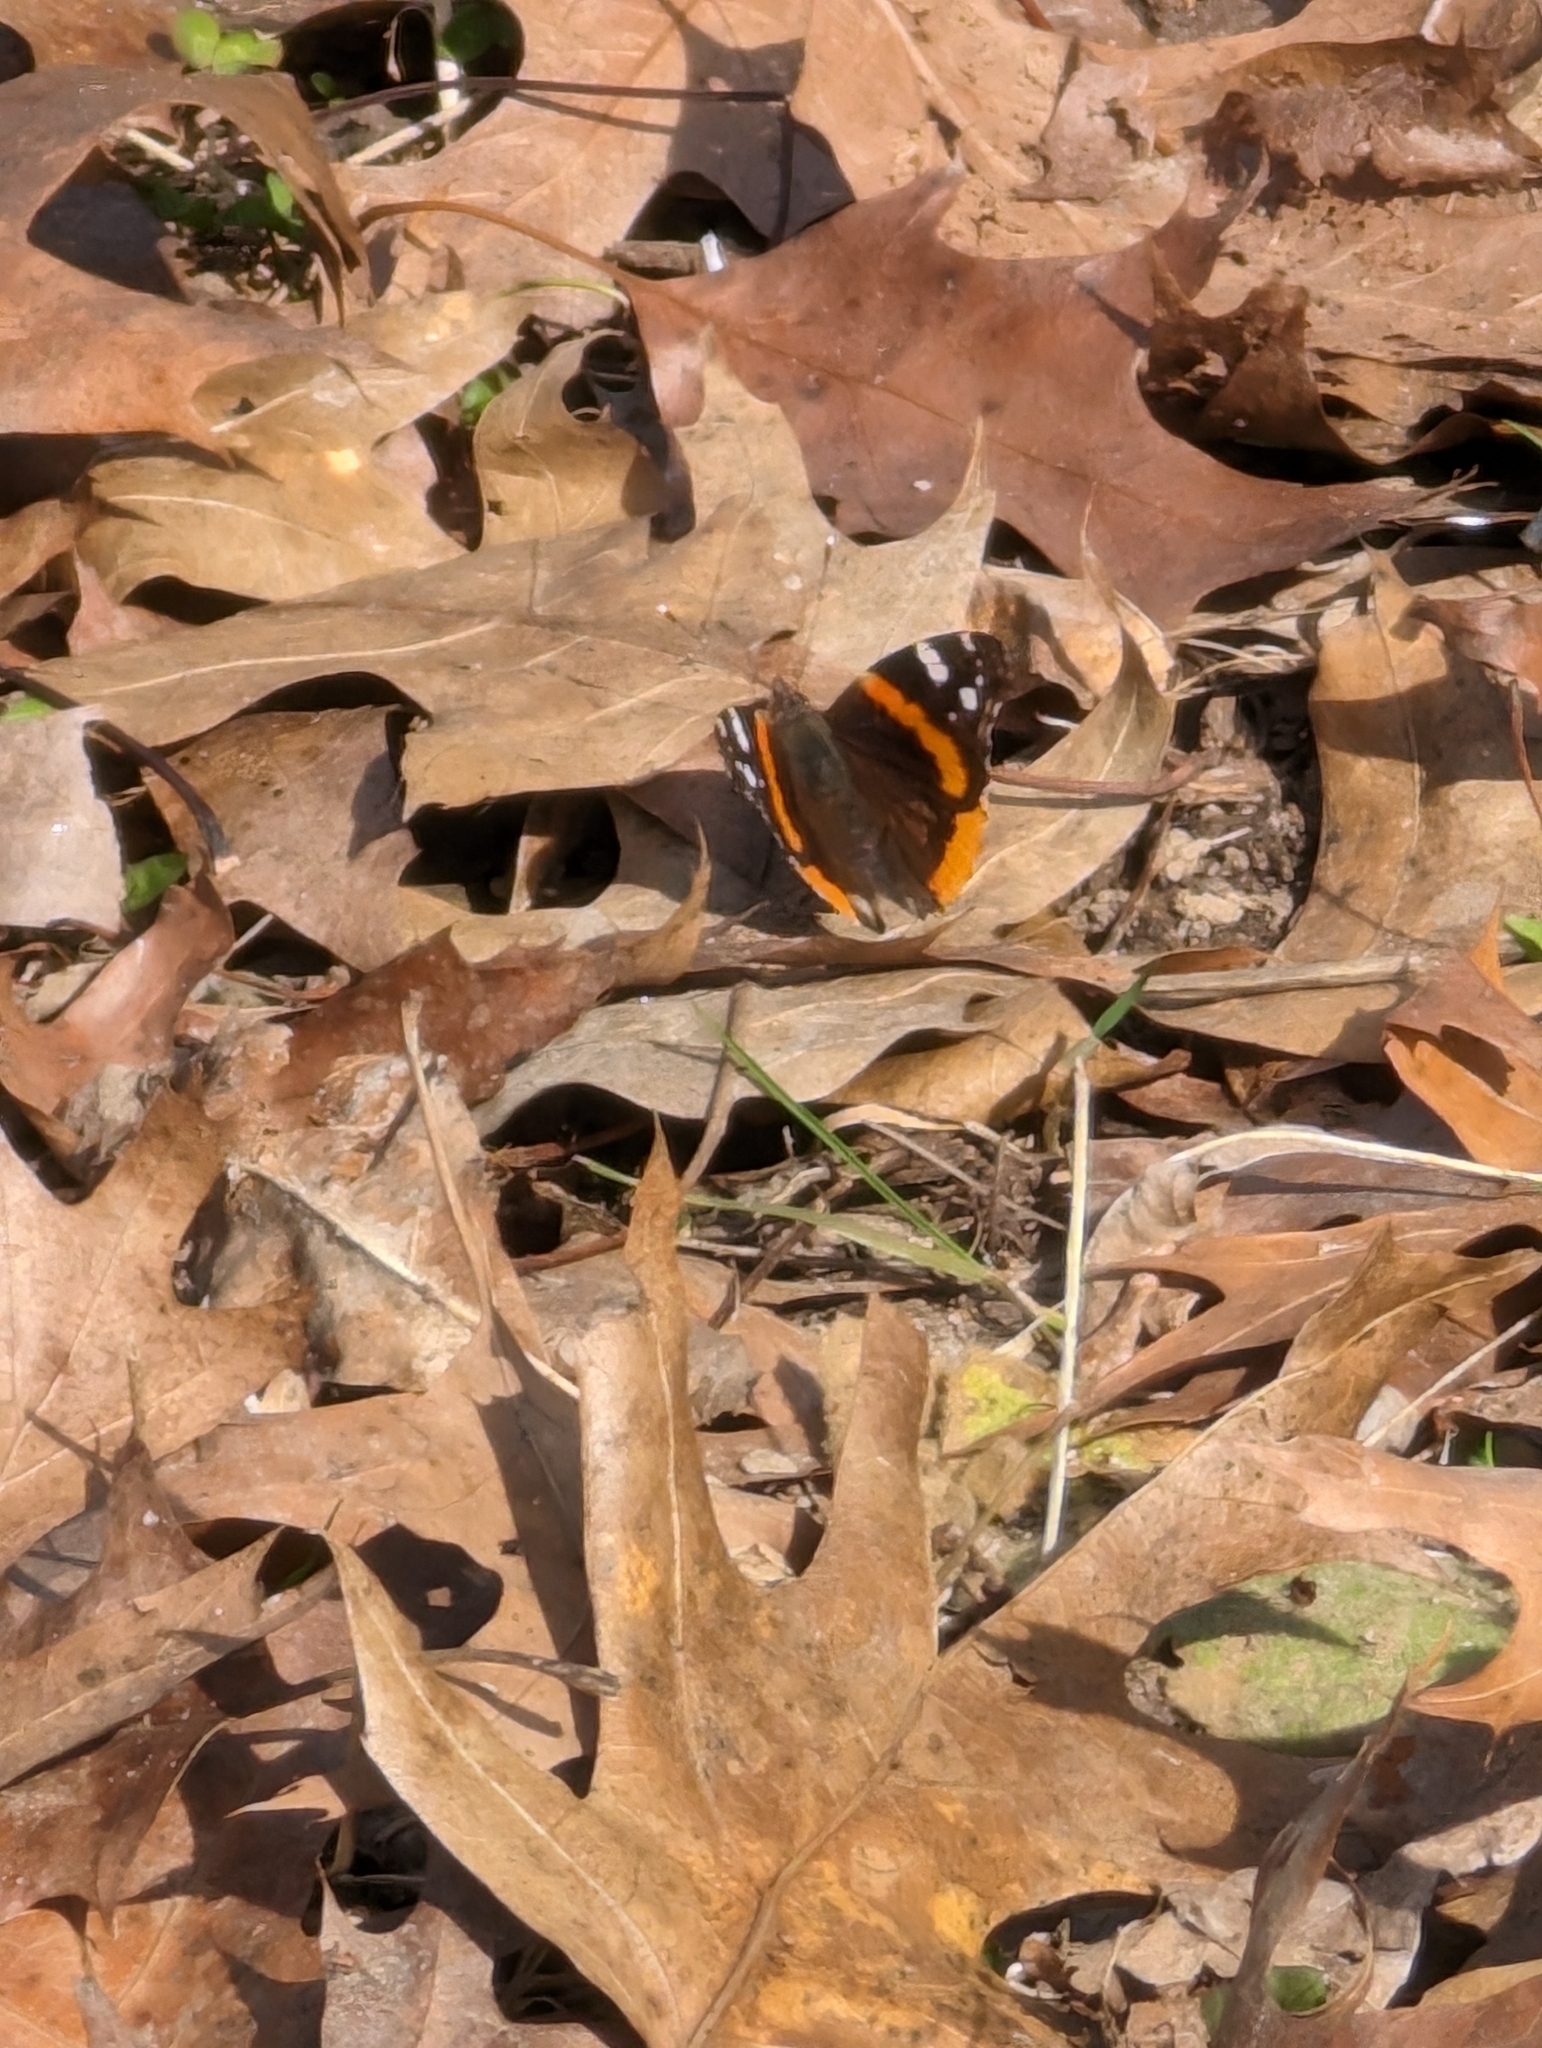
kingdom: Animalia
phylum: Arthropoda
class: Insecta
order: Lepidoptera
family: Nymphalidae
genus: Vanessa
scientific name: Vanessa atalanta
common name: Red admiral
